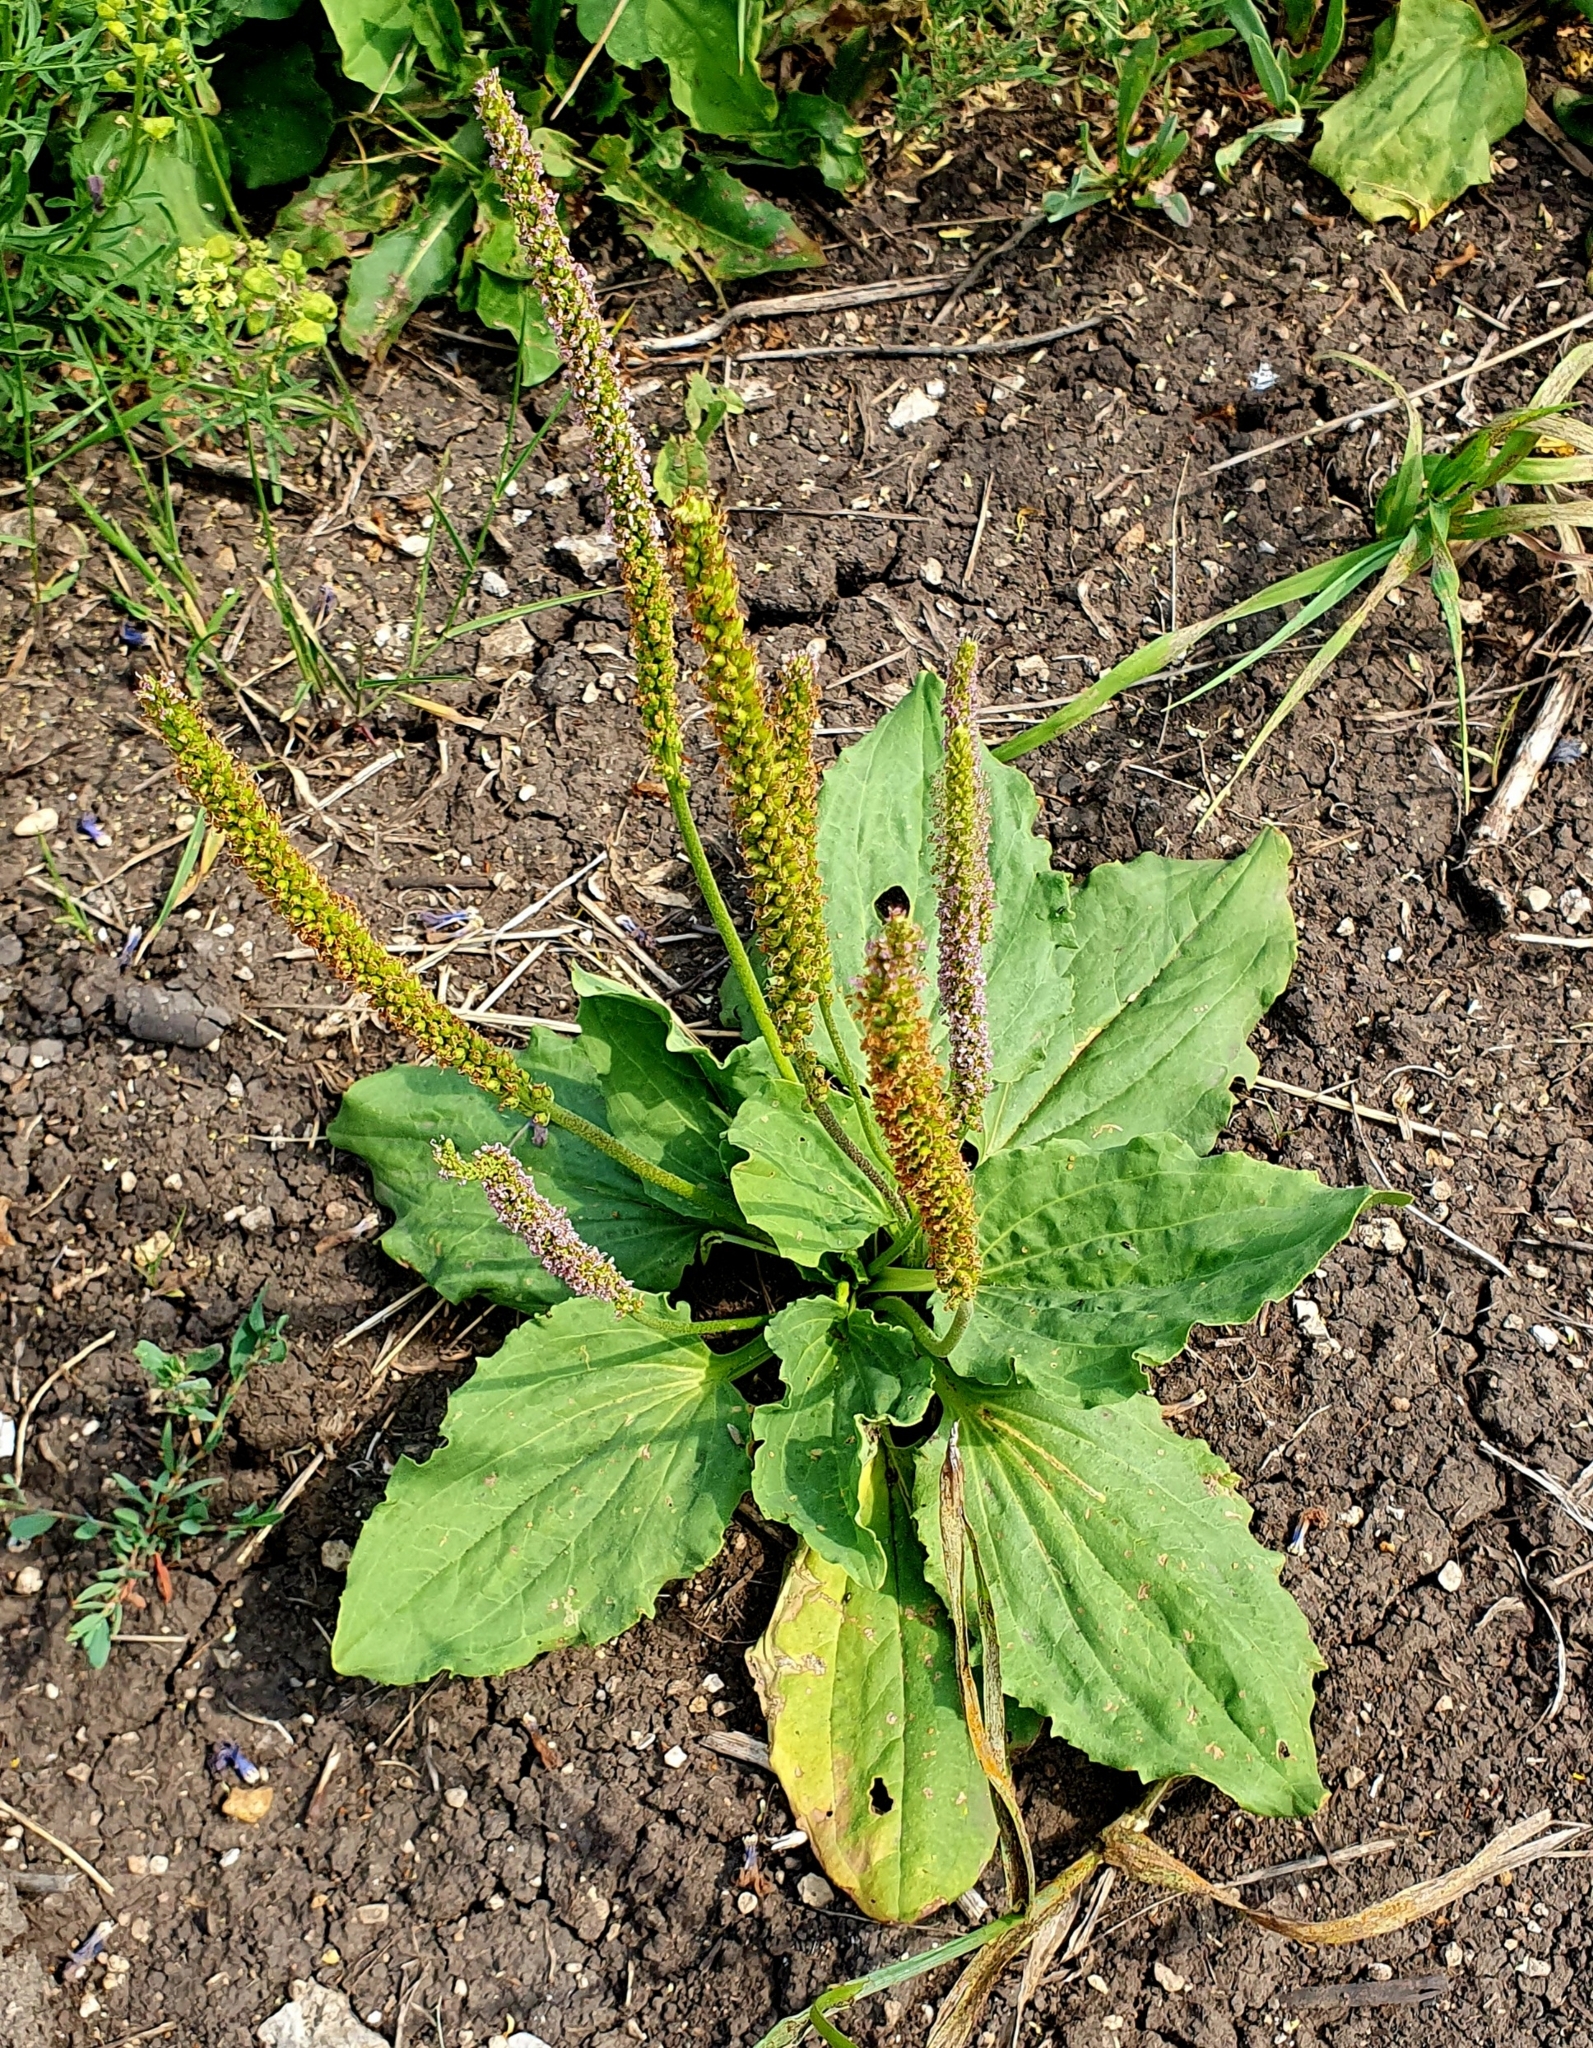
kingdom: Plantae
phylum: Tracheophyta
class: Magnoliopsida
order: Lamiales
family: Plantaginaceae
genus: Plantago
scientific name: Plantago major
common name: Common plantain
